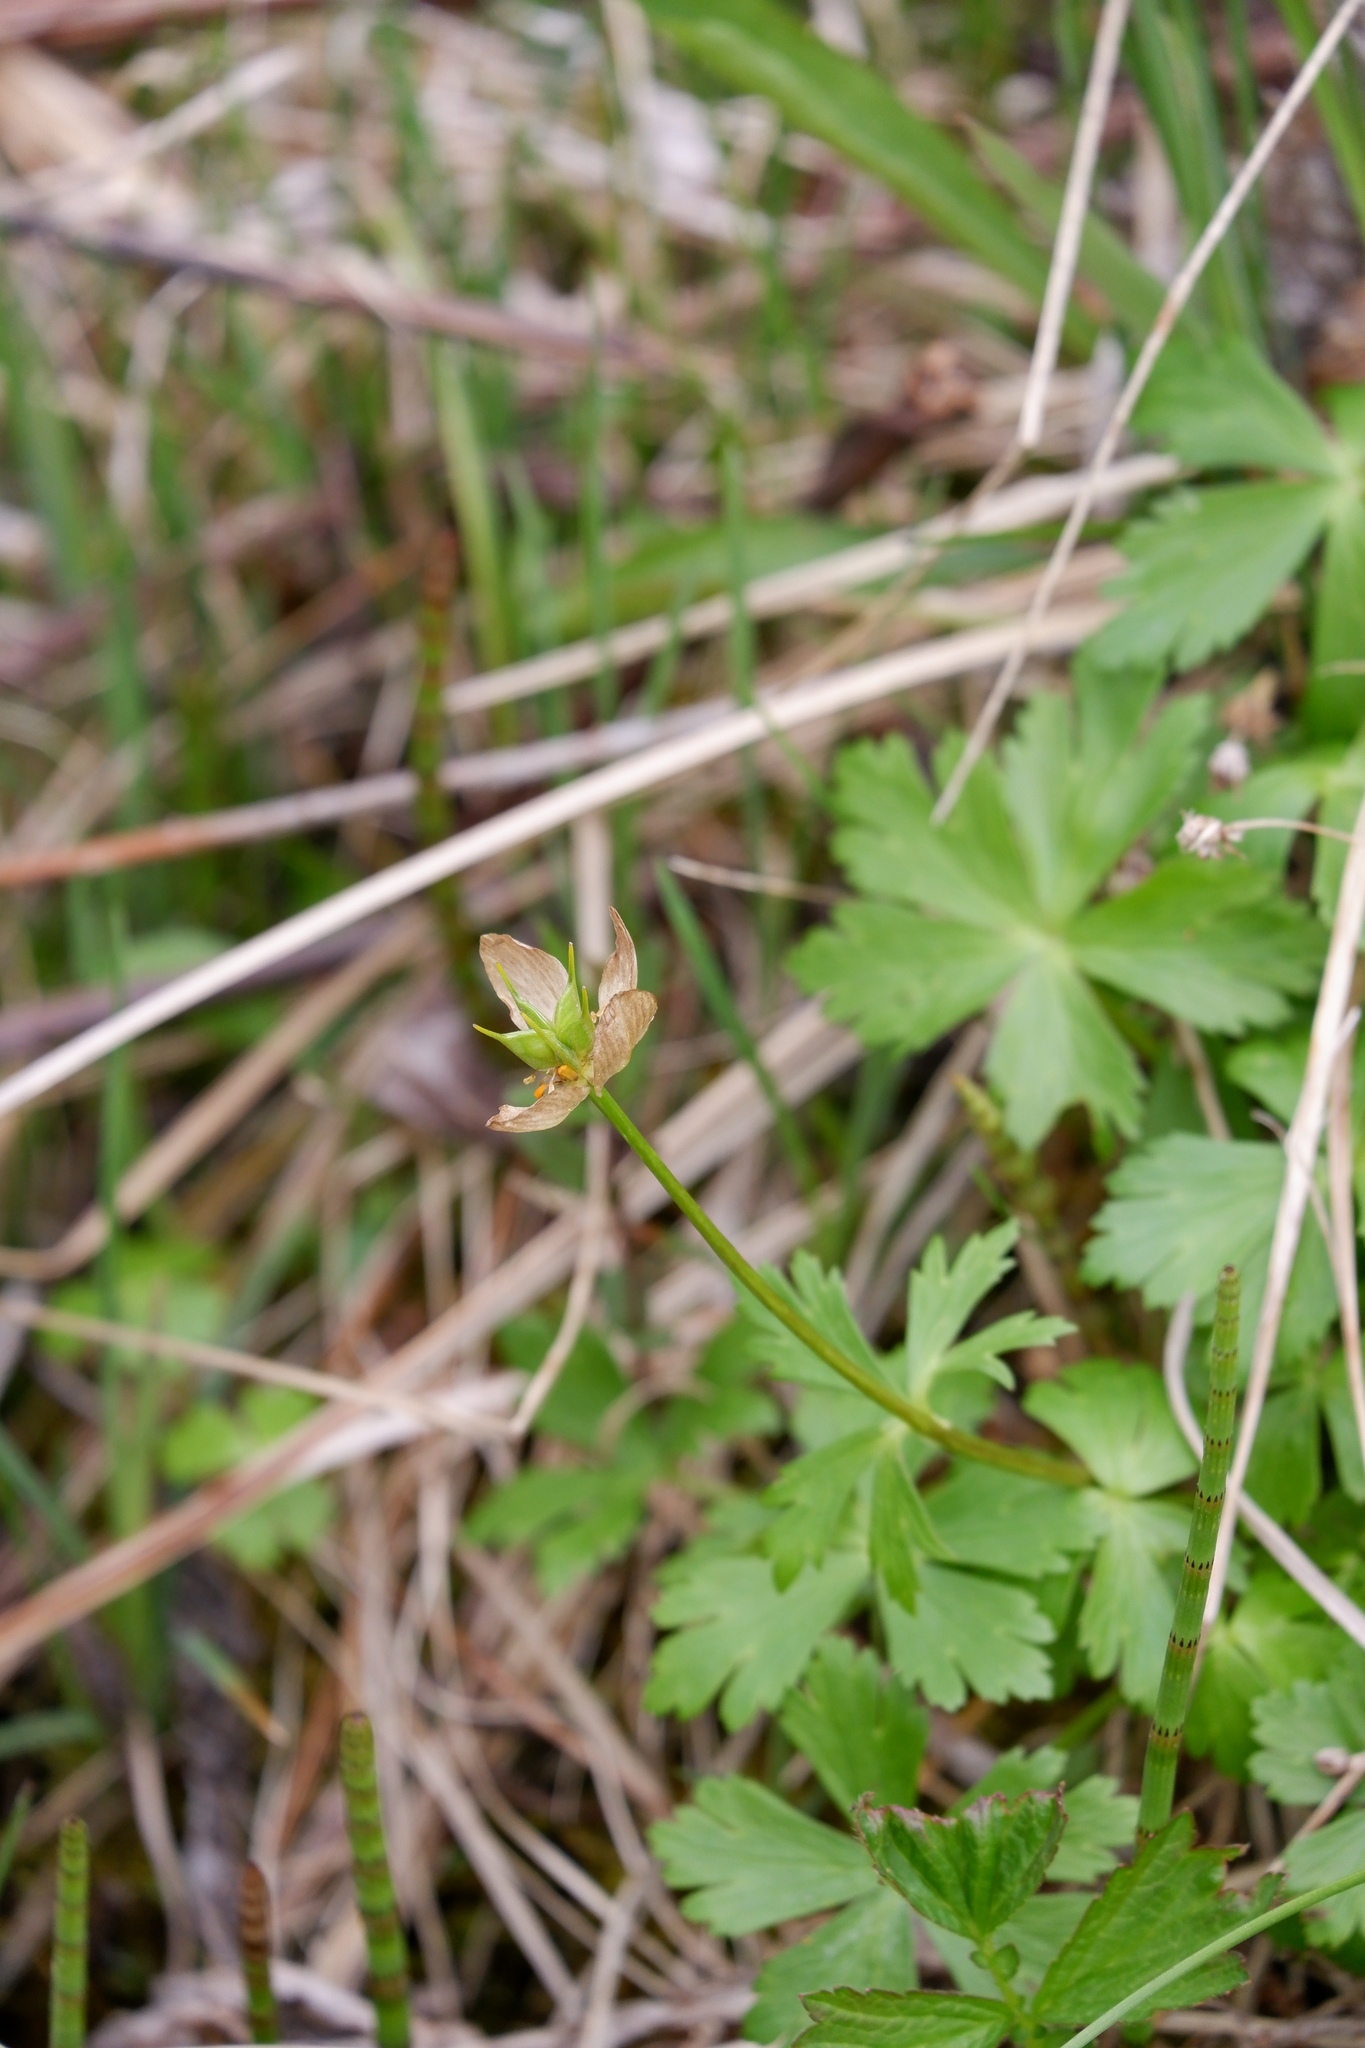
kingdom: Plantae
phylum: Tracheophyta
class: Magnoliopsida
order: Ranunculales
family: Ranunculaceae
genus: Trollius
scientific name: Trollius laxus
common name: American globeflower
